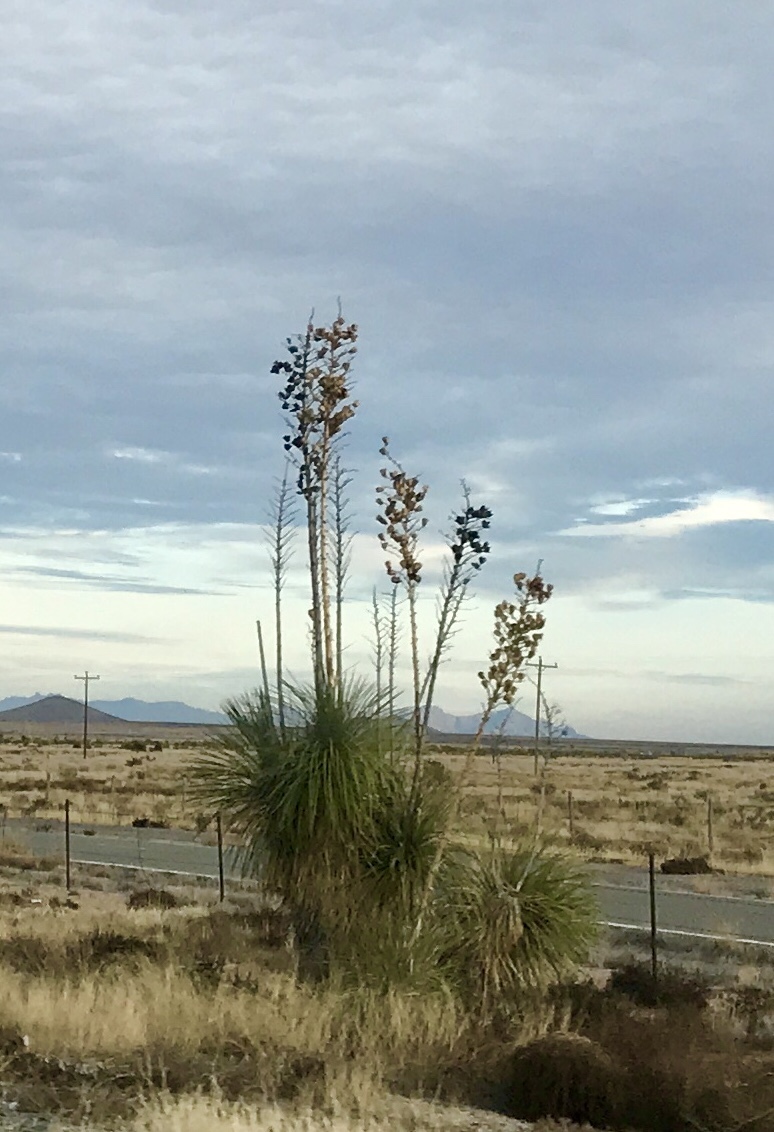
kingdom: Plantae
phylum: Tracheophyta
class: Liliopsida
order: Asparagales
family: Asparagaceae
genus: Yucca
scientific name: Yucca elata
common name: Palmella
